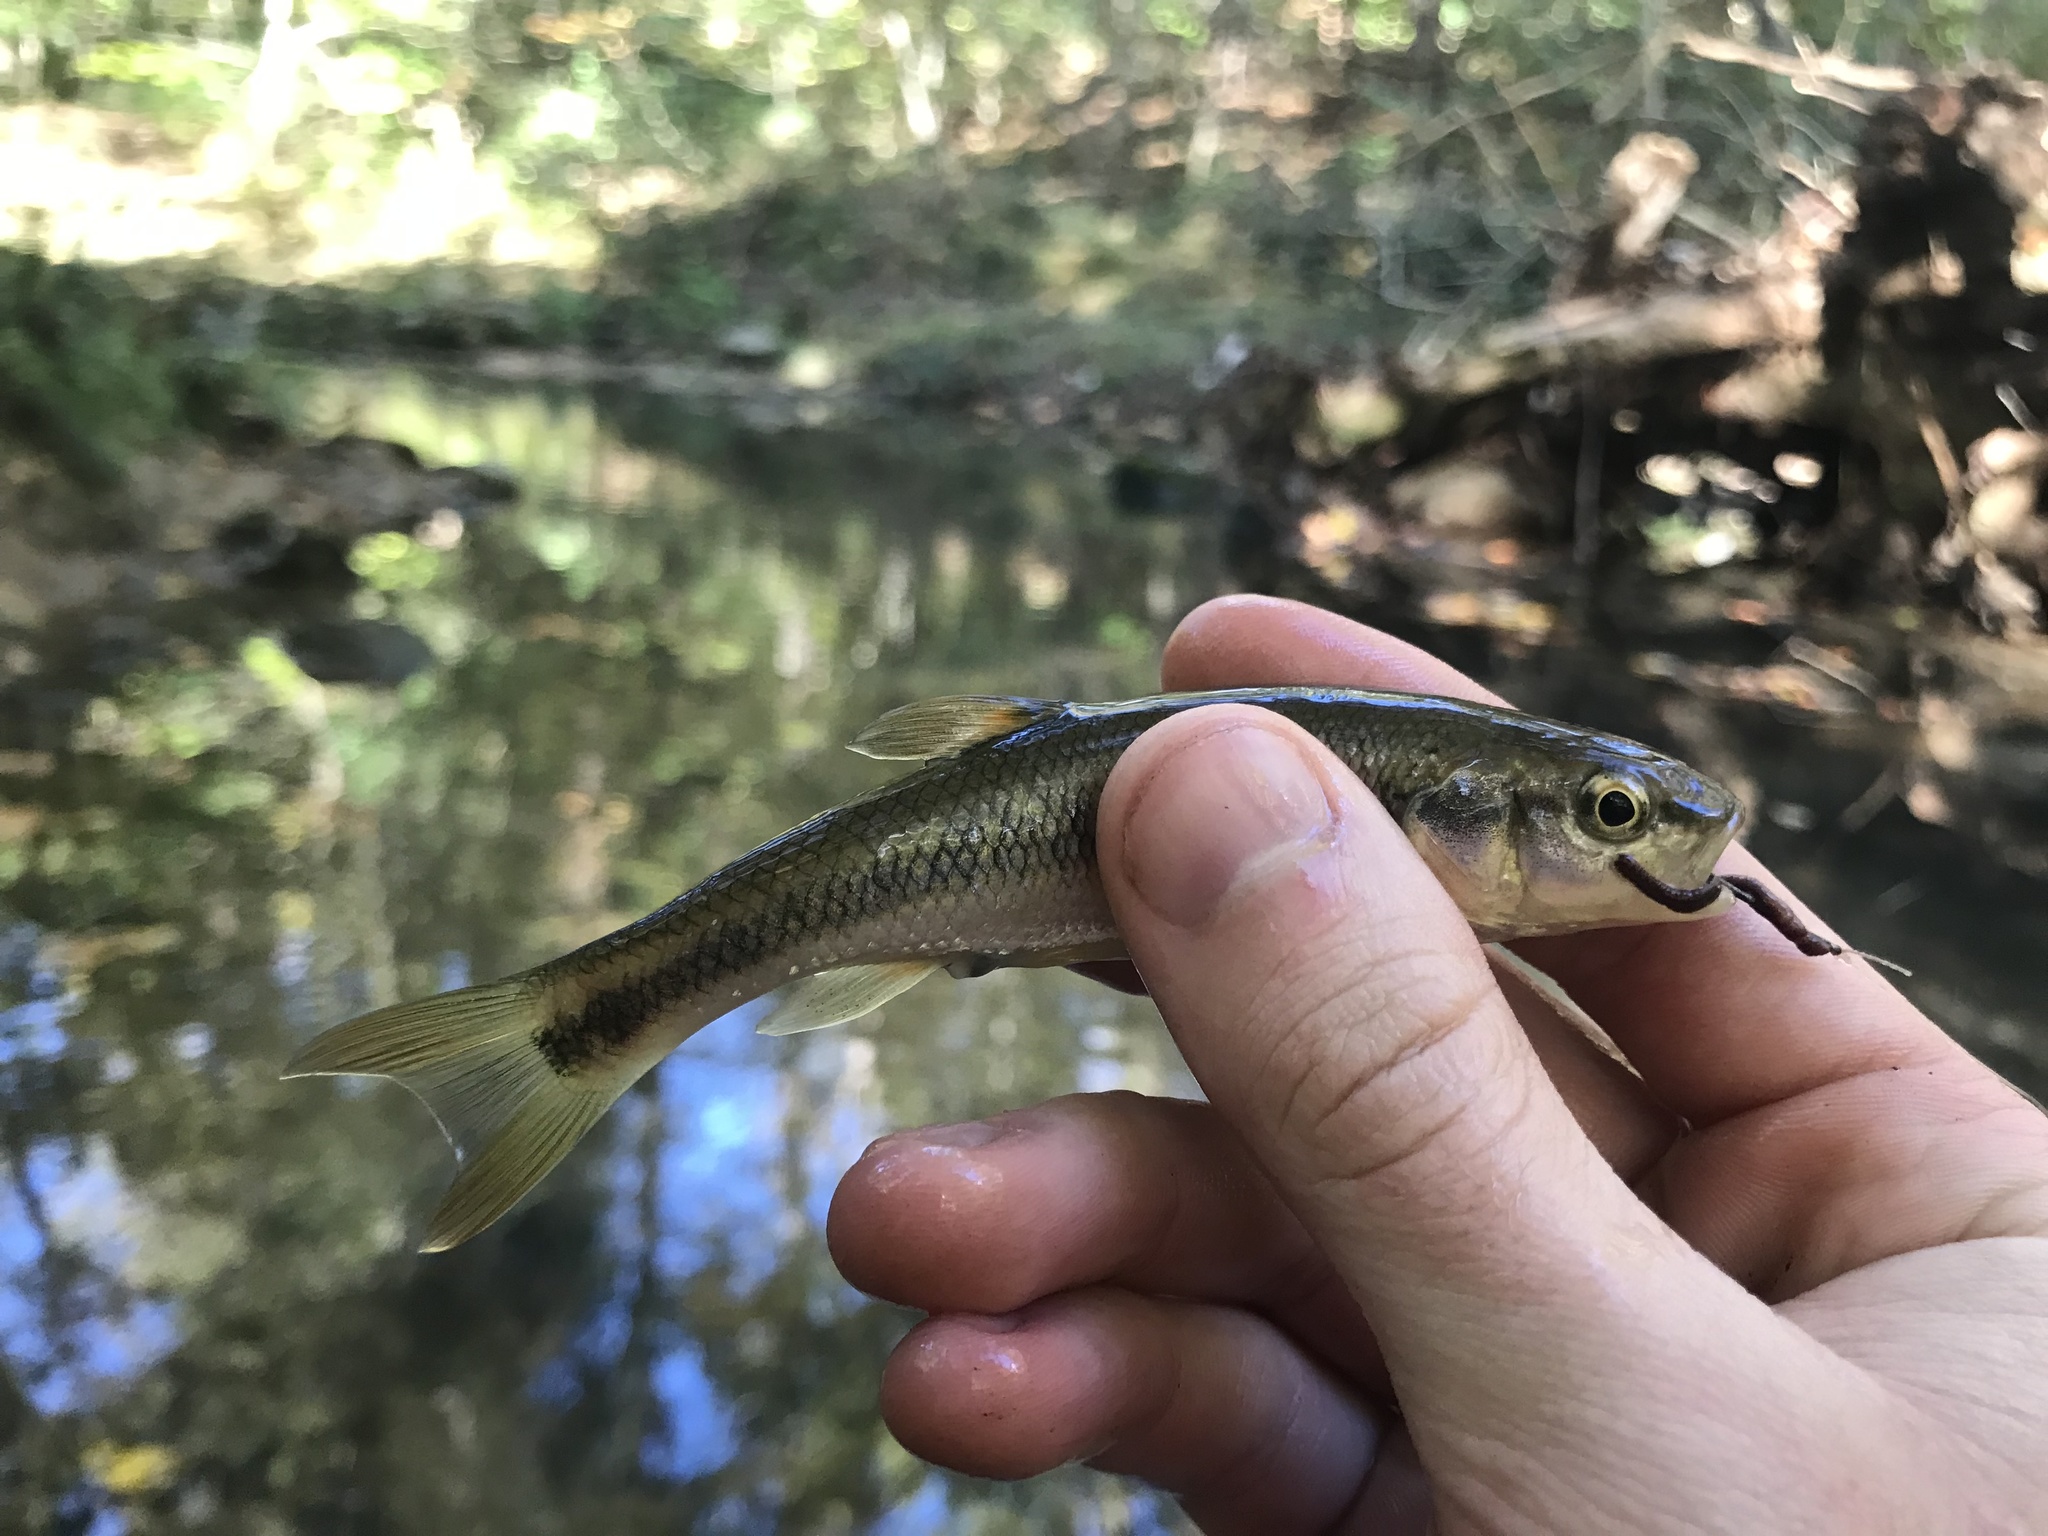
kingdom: Animalia
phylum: Chordata
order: Cypriniformes
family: Cyprinidae
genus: Semotilus
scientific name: Semotilus atromaculatus
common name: Creek chub
